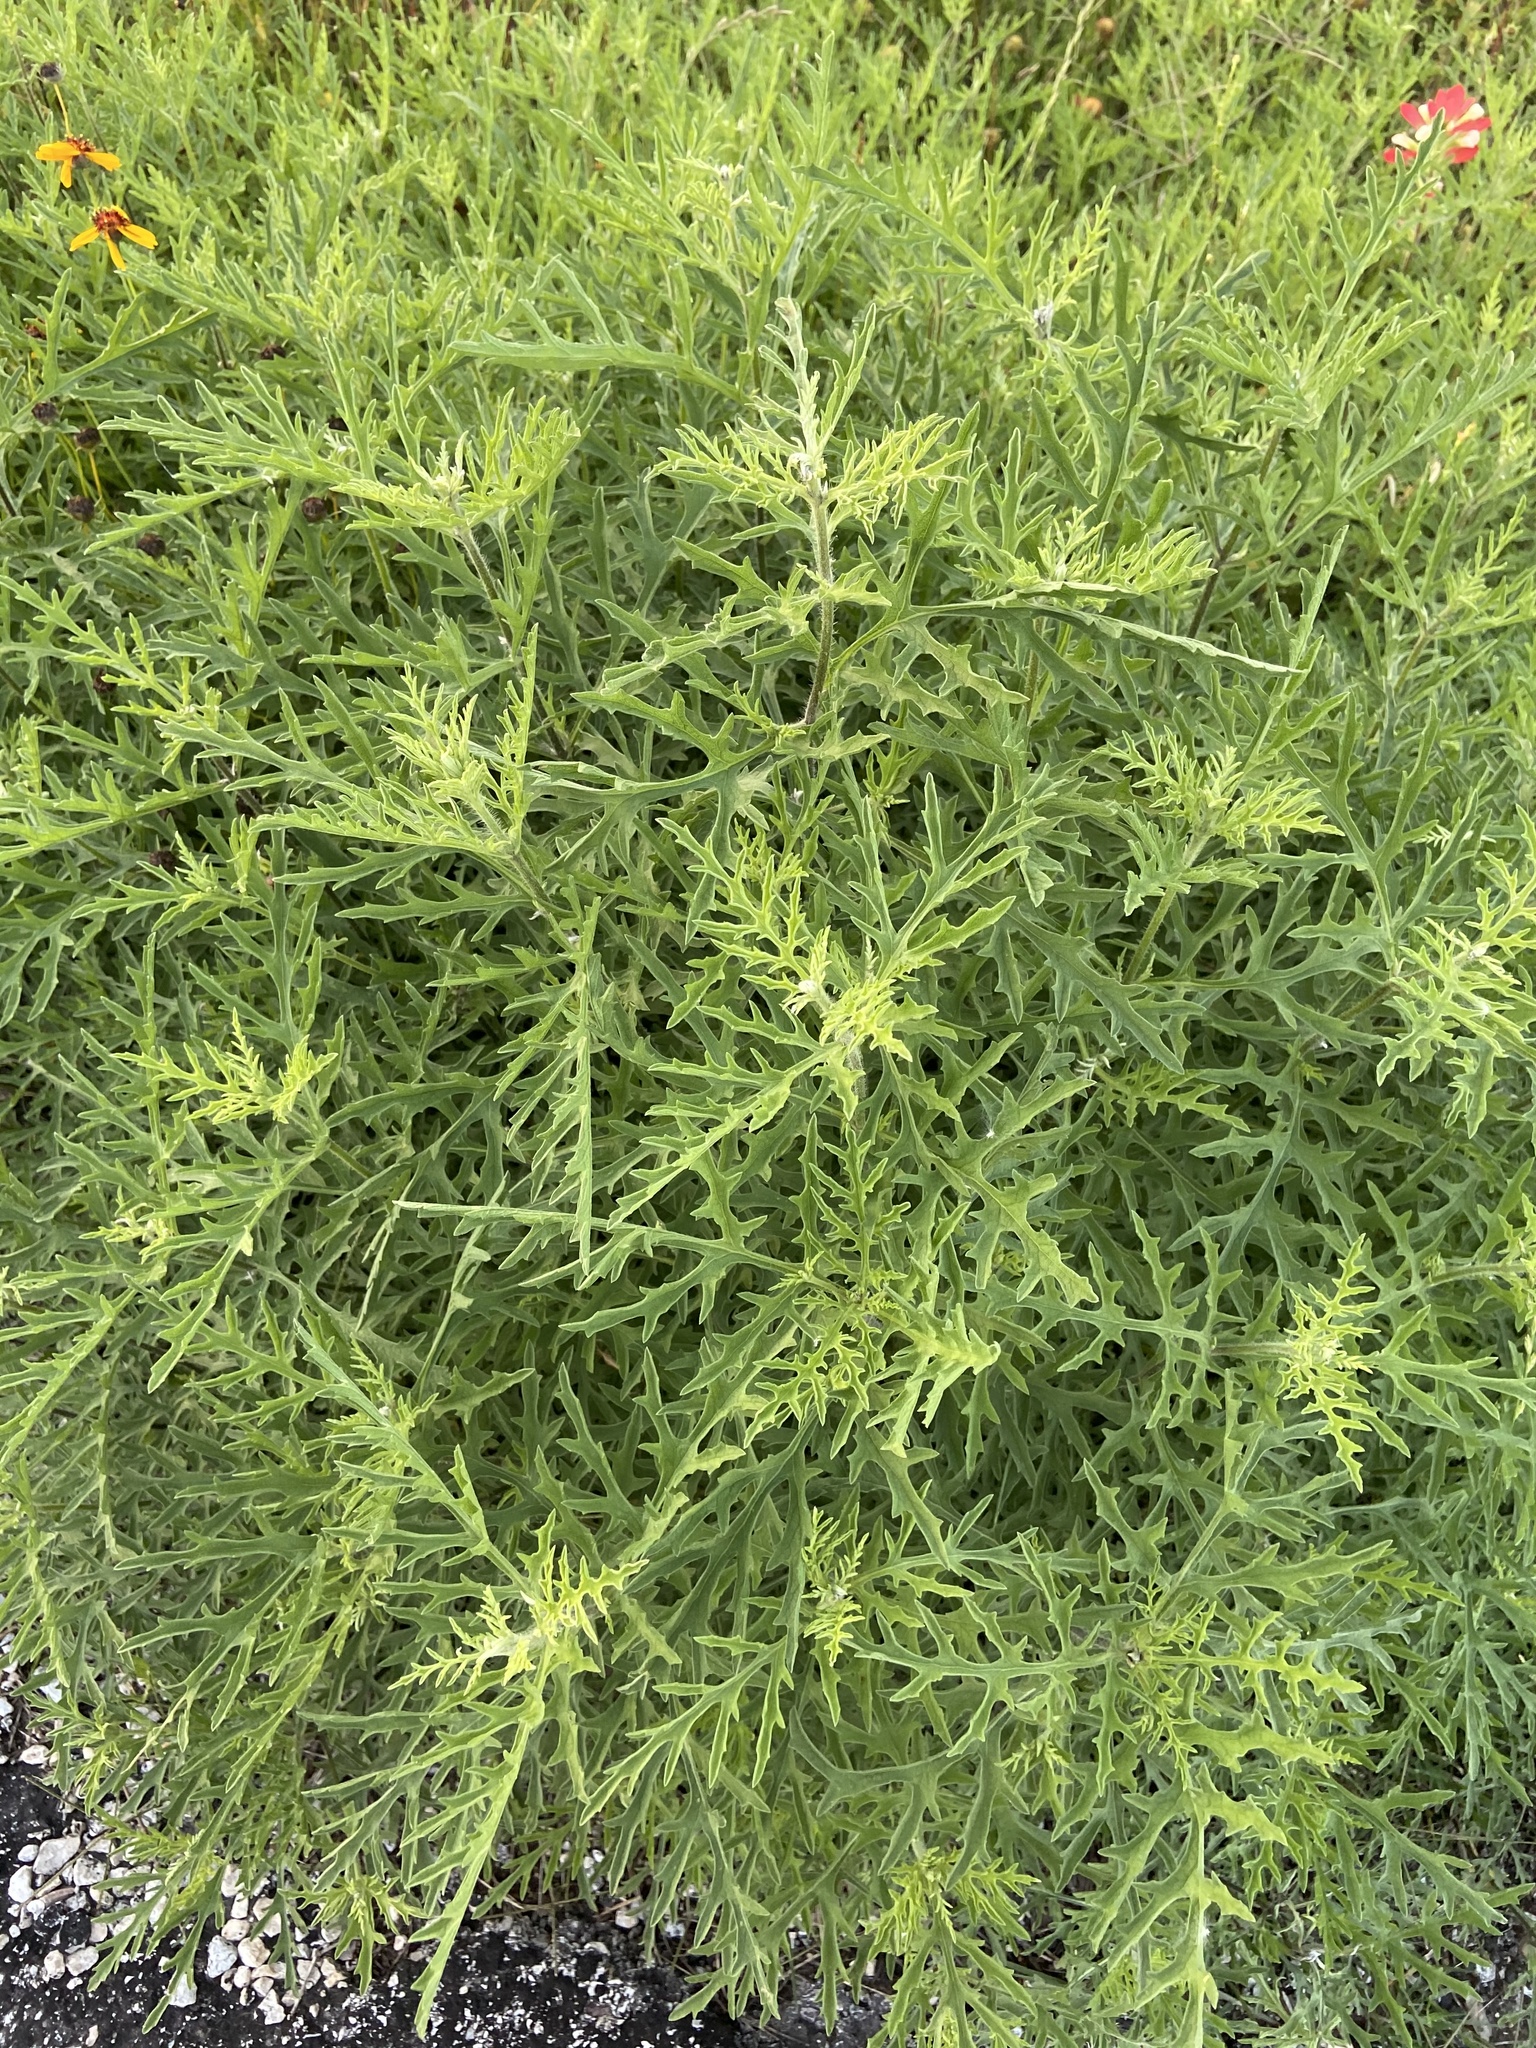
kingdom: Plantae
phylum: Tracheophyta
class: Magnoliopsida
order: Asterales
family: Asteraceae
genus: Ambrosia
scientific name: Ambrosia artemisiifolia
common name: Annual ragweed
